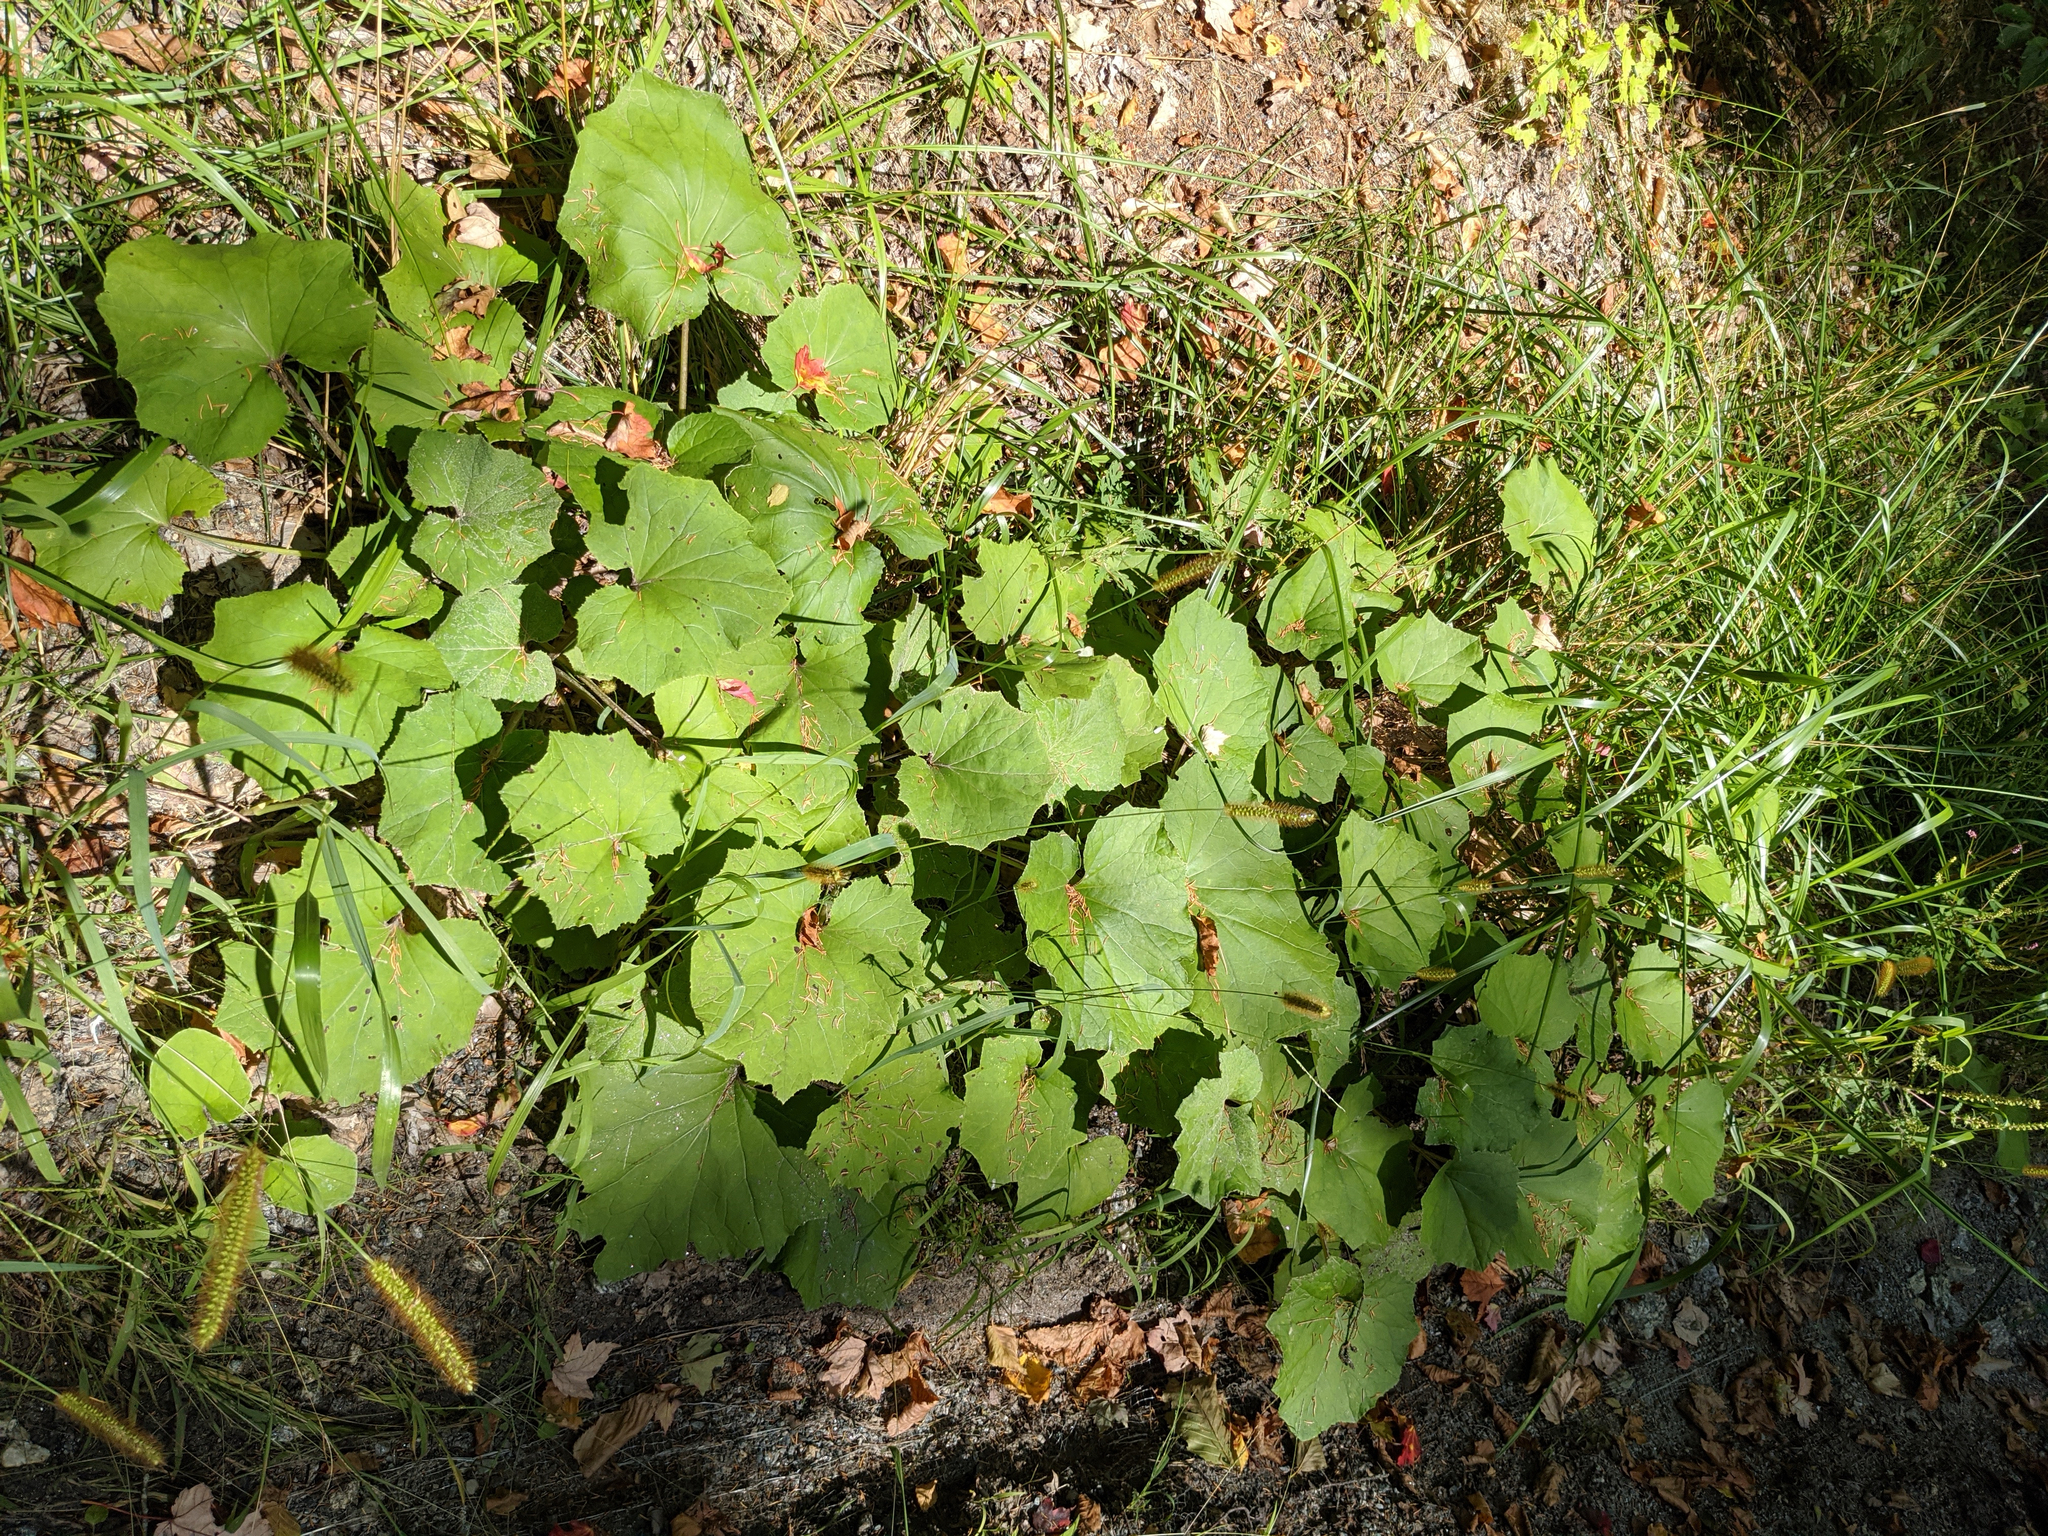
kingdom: Plantae
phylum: Tracheophyta
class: Magnoliopsida
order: Asterales
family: Asteraceae
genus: Tussilago
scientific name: Tussilago farfara
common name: Coltsfoot
